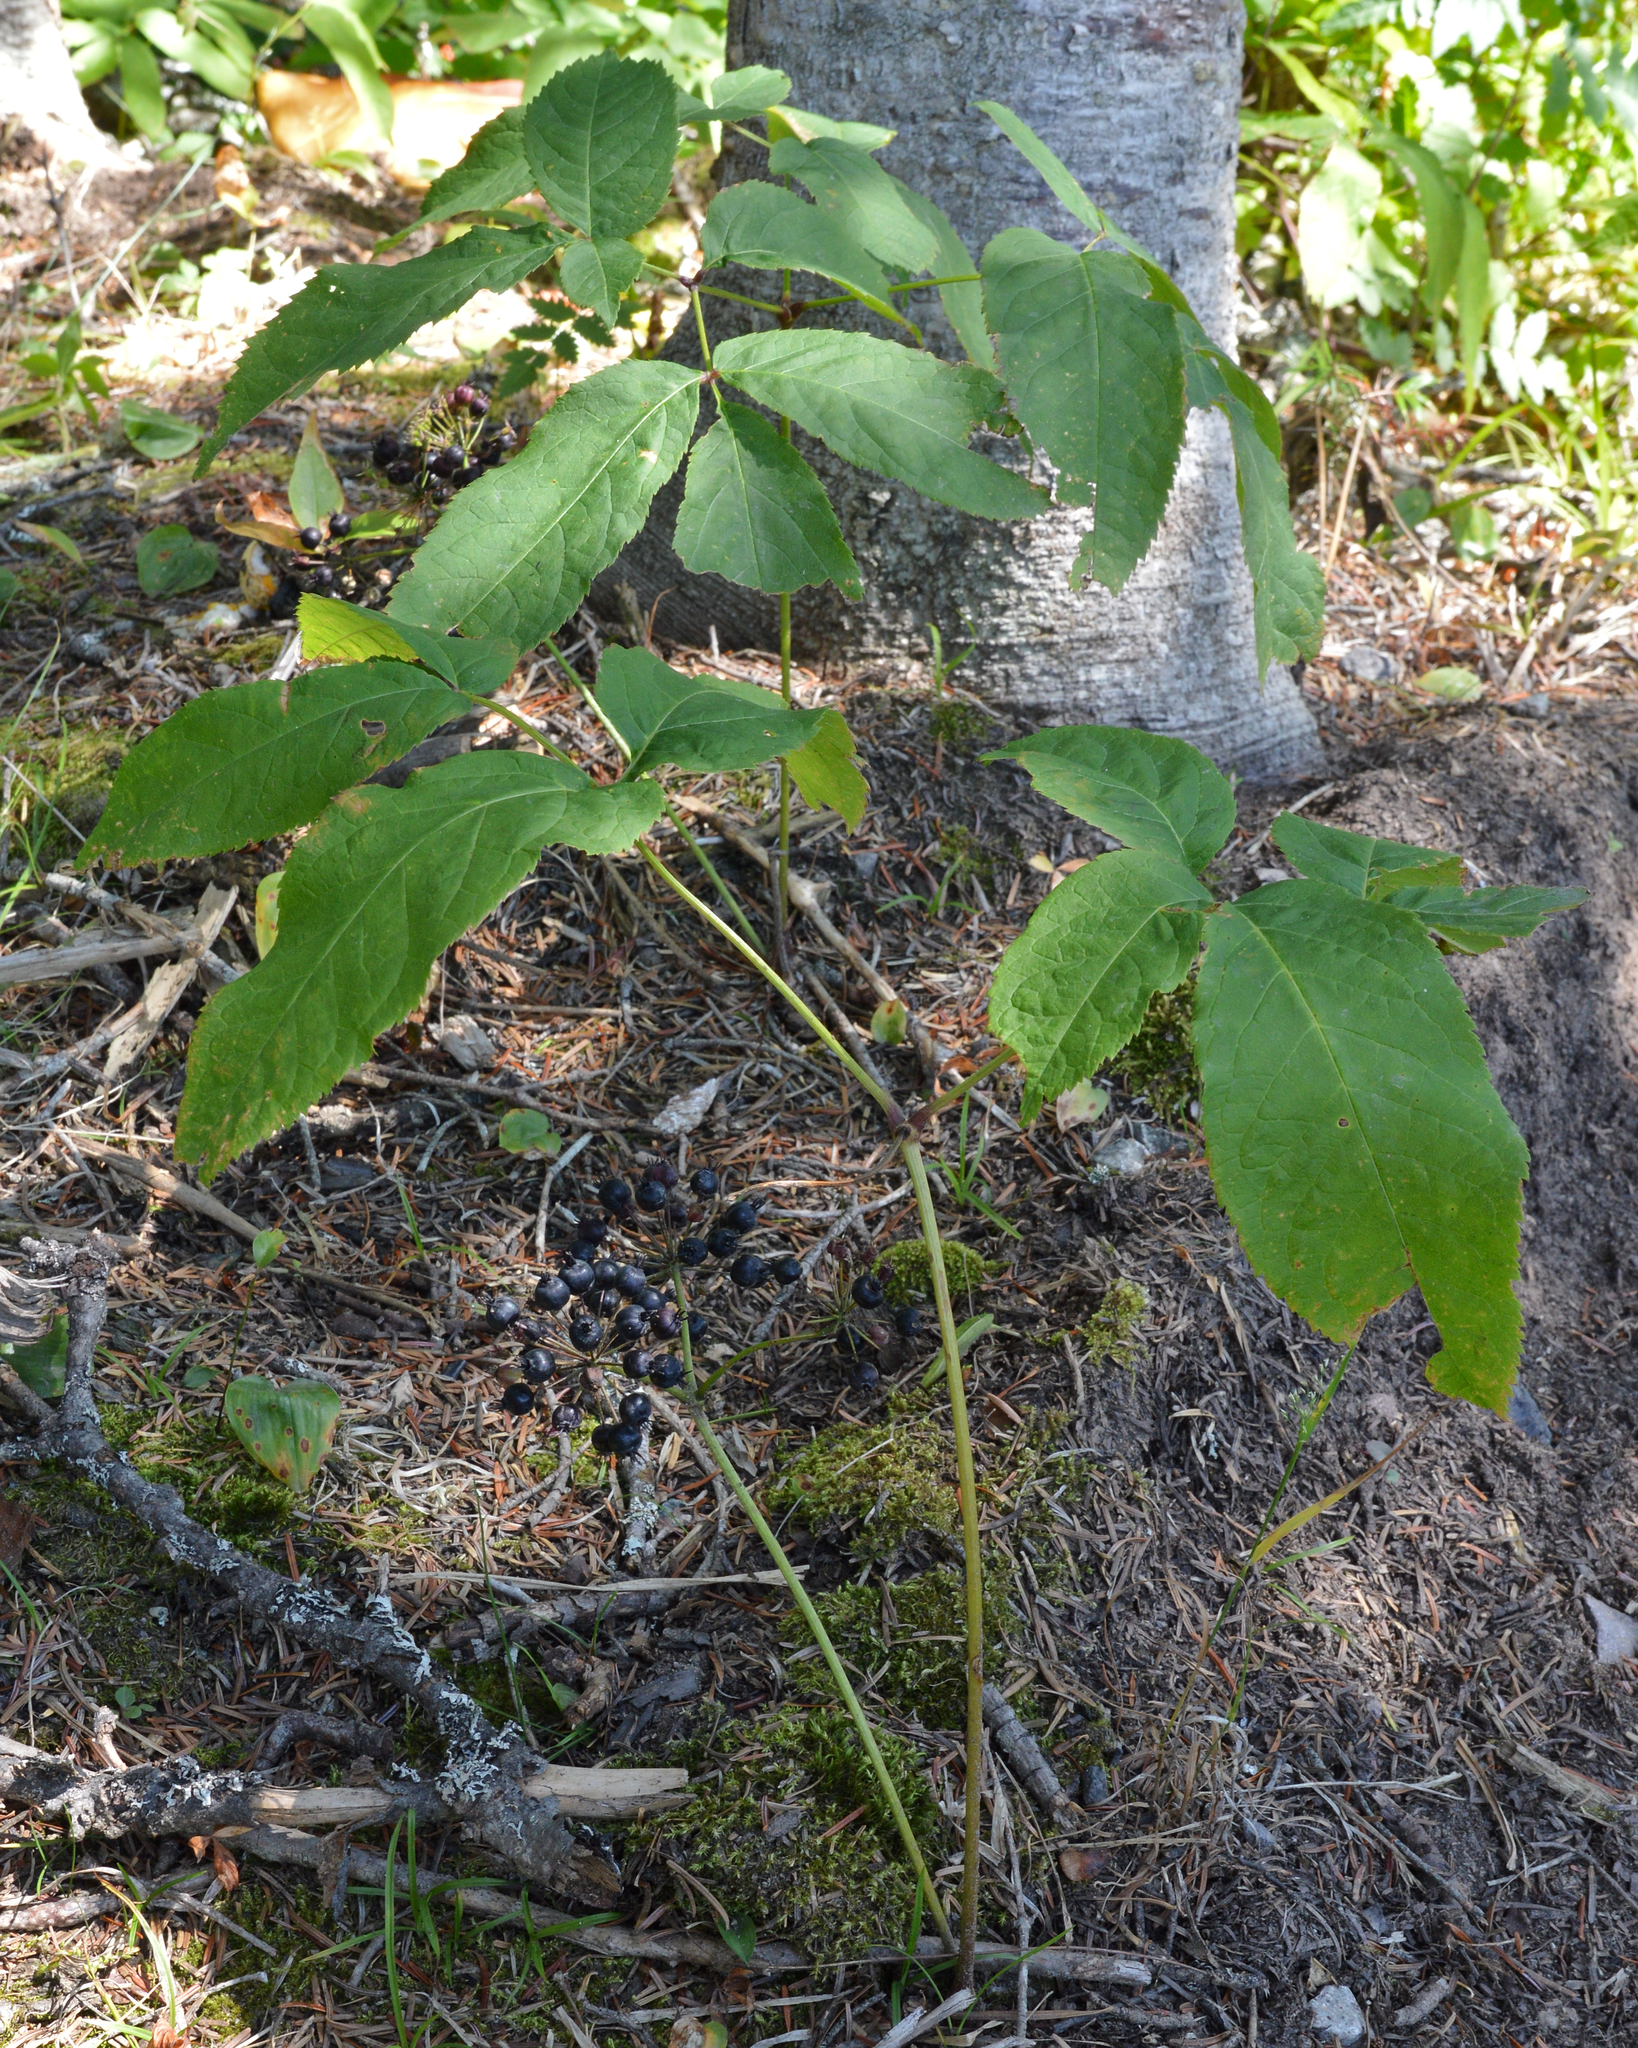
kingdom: Plantae
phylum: Tracheophyta
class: Magnoliopsida
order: Apiales
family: Araliaceae
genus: Aralia
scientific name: Aralia nudicaulis
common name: Wild sarsaparilla
